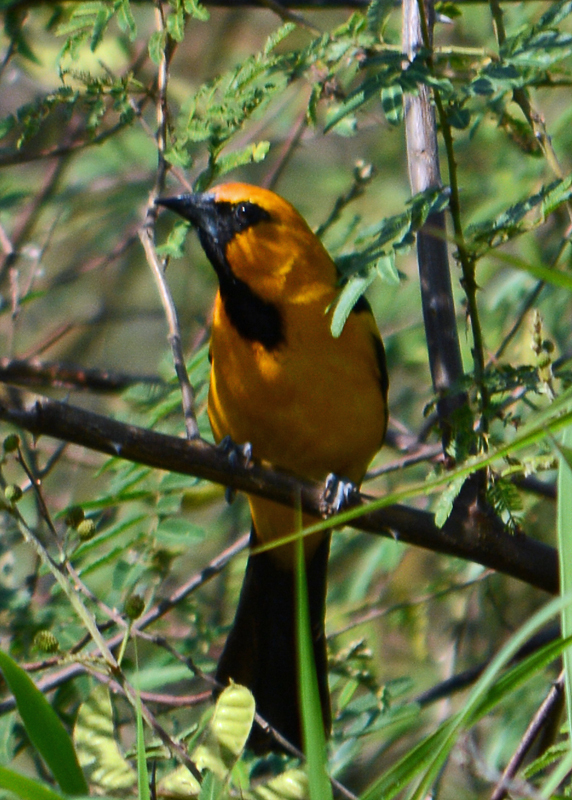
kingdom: Animalia
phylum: Chordata
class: Aves
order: Passeriformes
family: Icteridae
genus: Icterus
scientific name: Icterus gularis
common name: Altamira oriole
